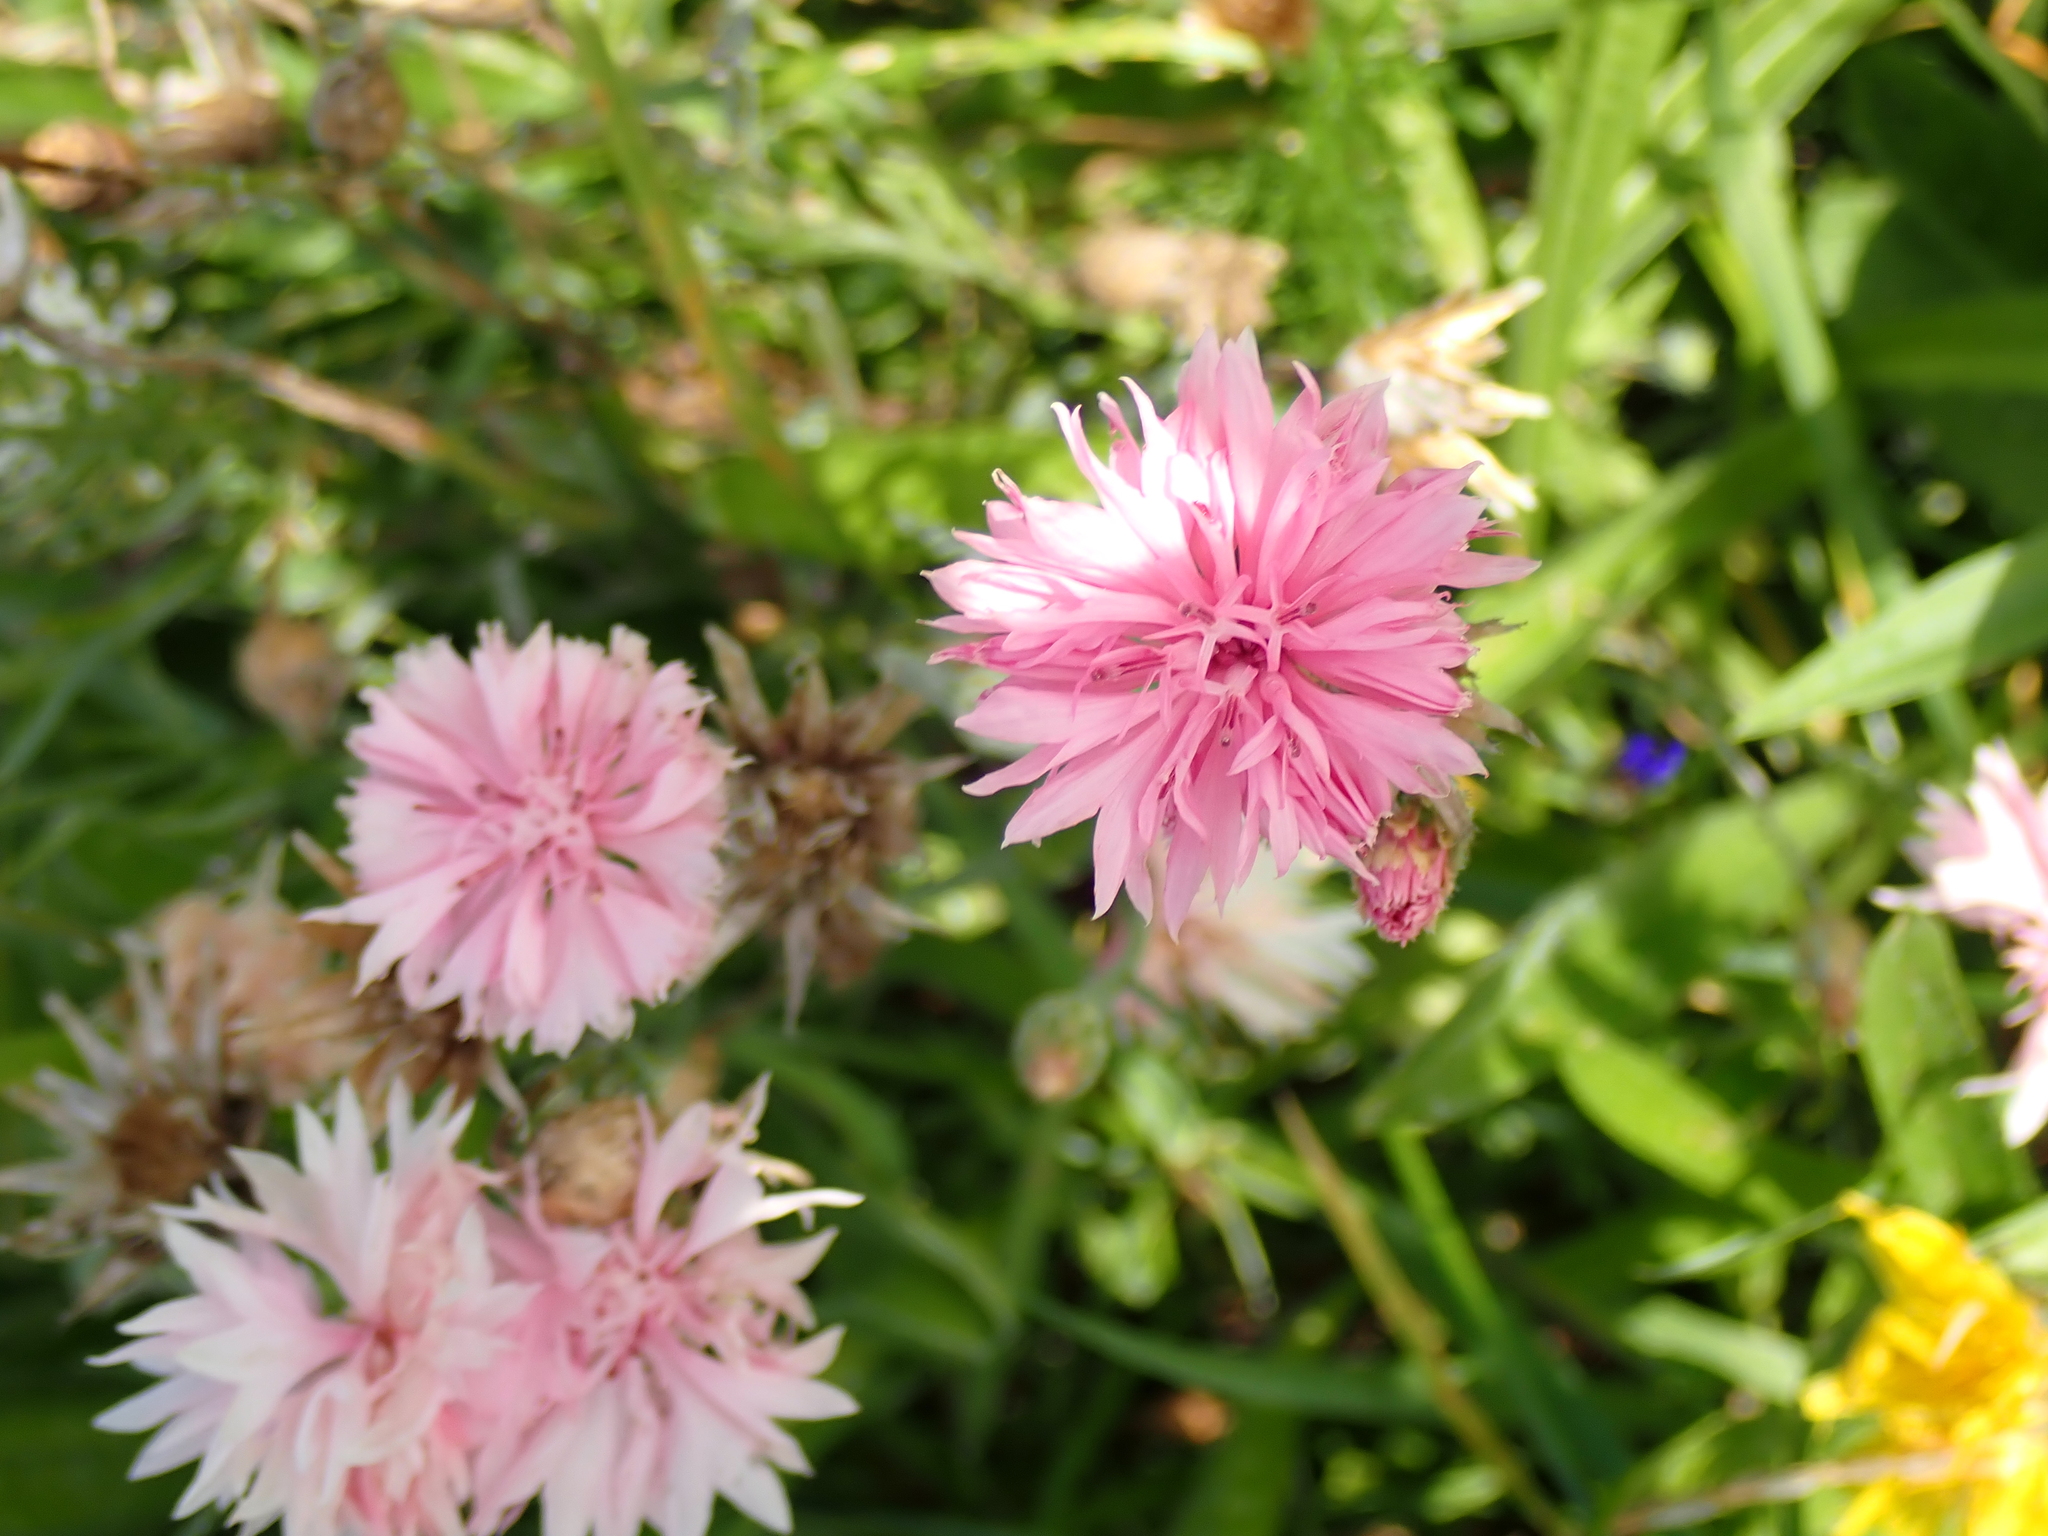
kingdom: Plantae
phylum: Tracheophyta
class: Magnoliopsida
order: Asterales
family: Asteraceae
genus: Centaurea
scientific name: Centaurea cyanus
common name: Cornflower
